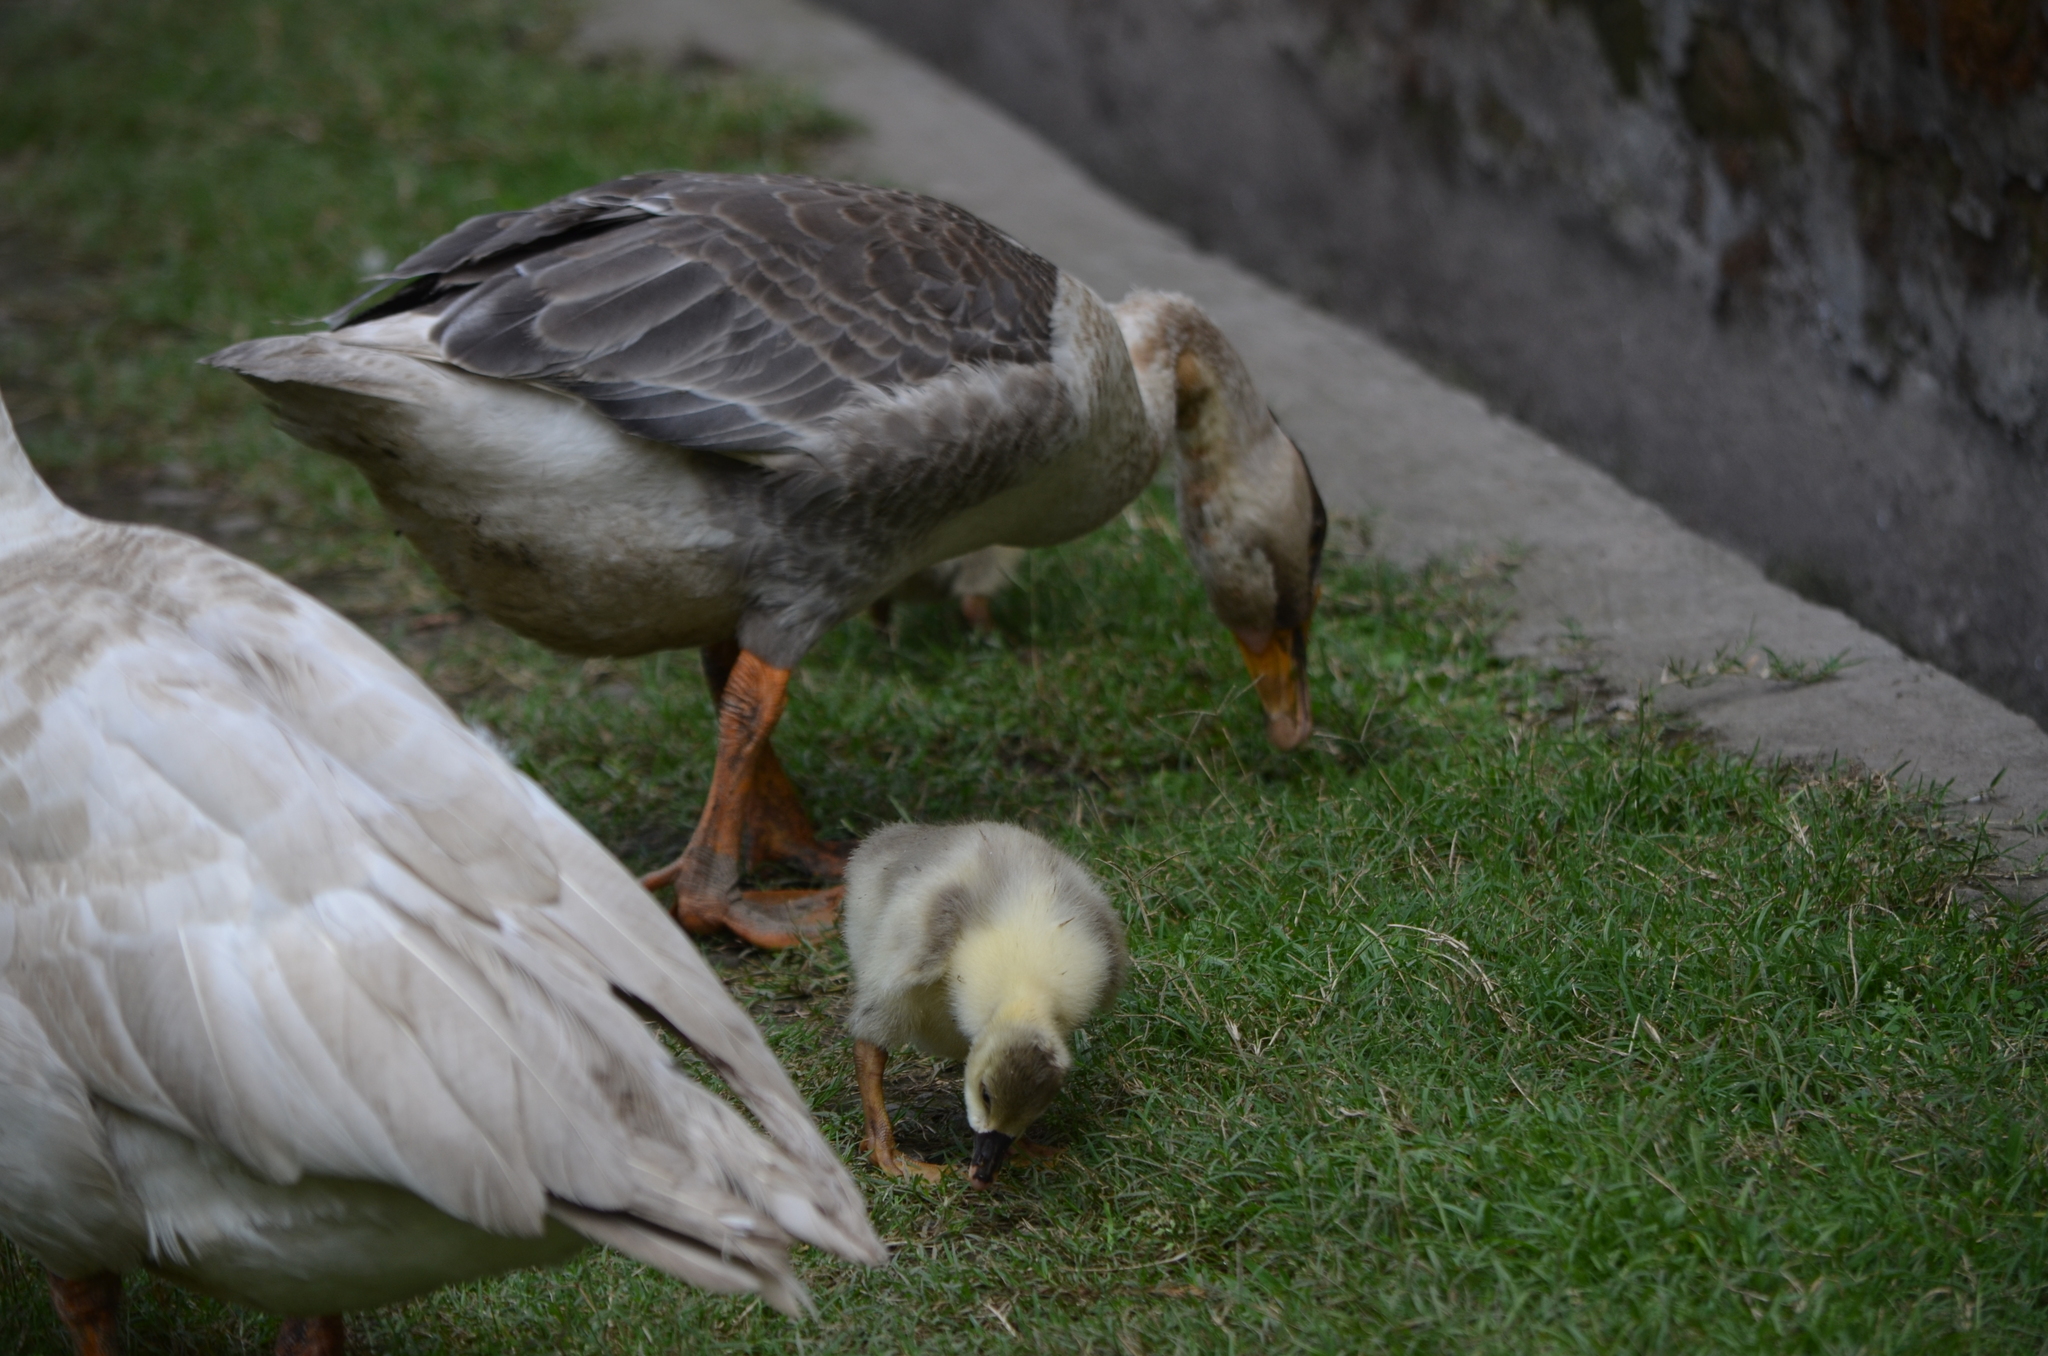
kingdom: Animalia
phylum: Chordata
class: Aves
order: Anseriformes
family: Anatidae
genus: Anser
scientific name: Anser anser
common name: Greylag goose
